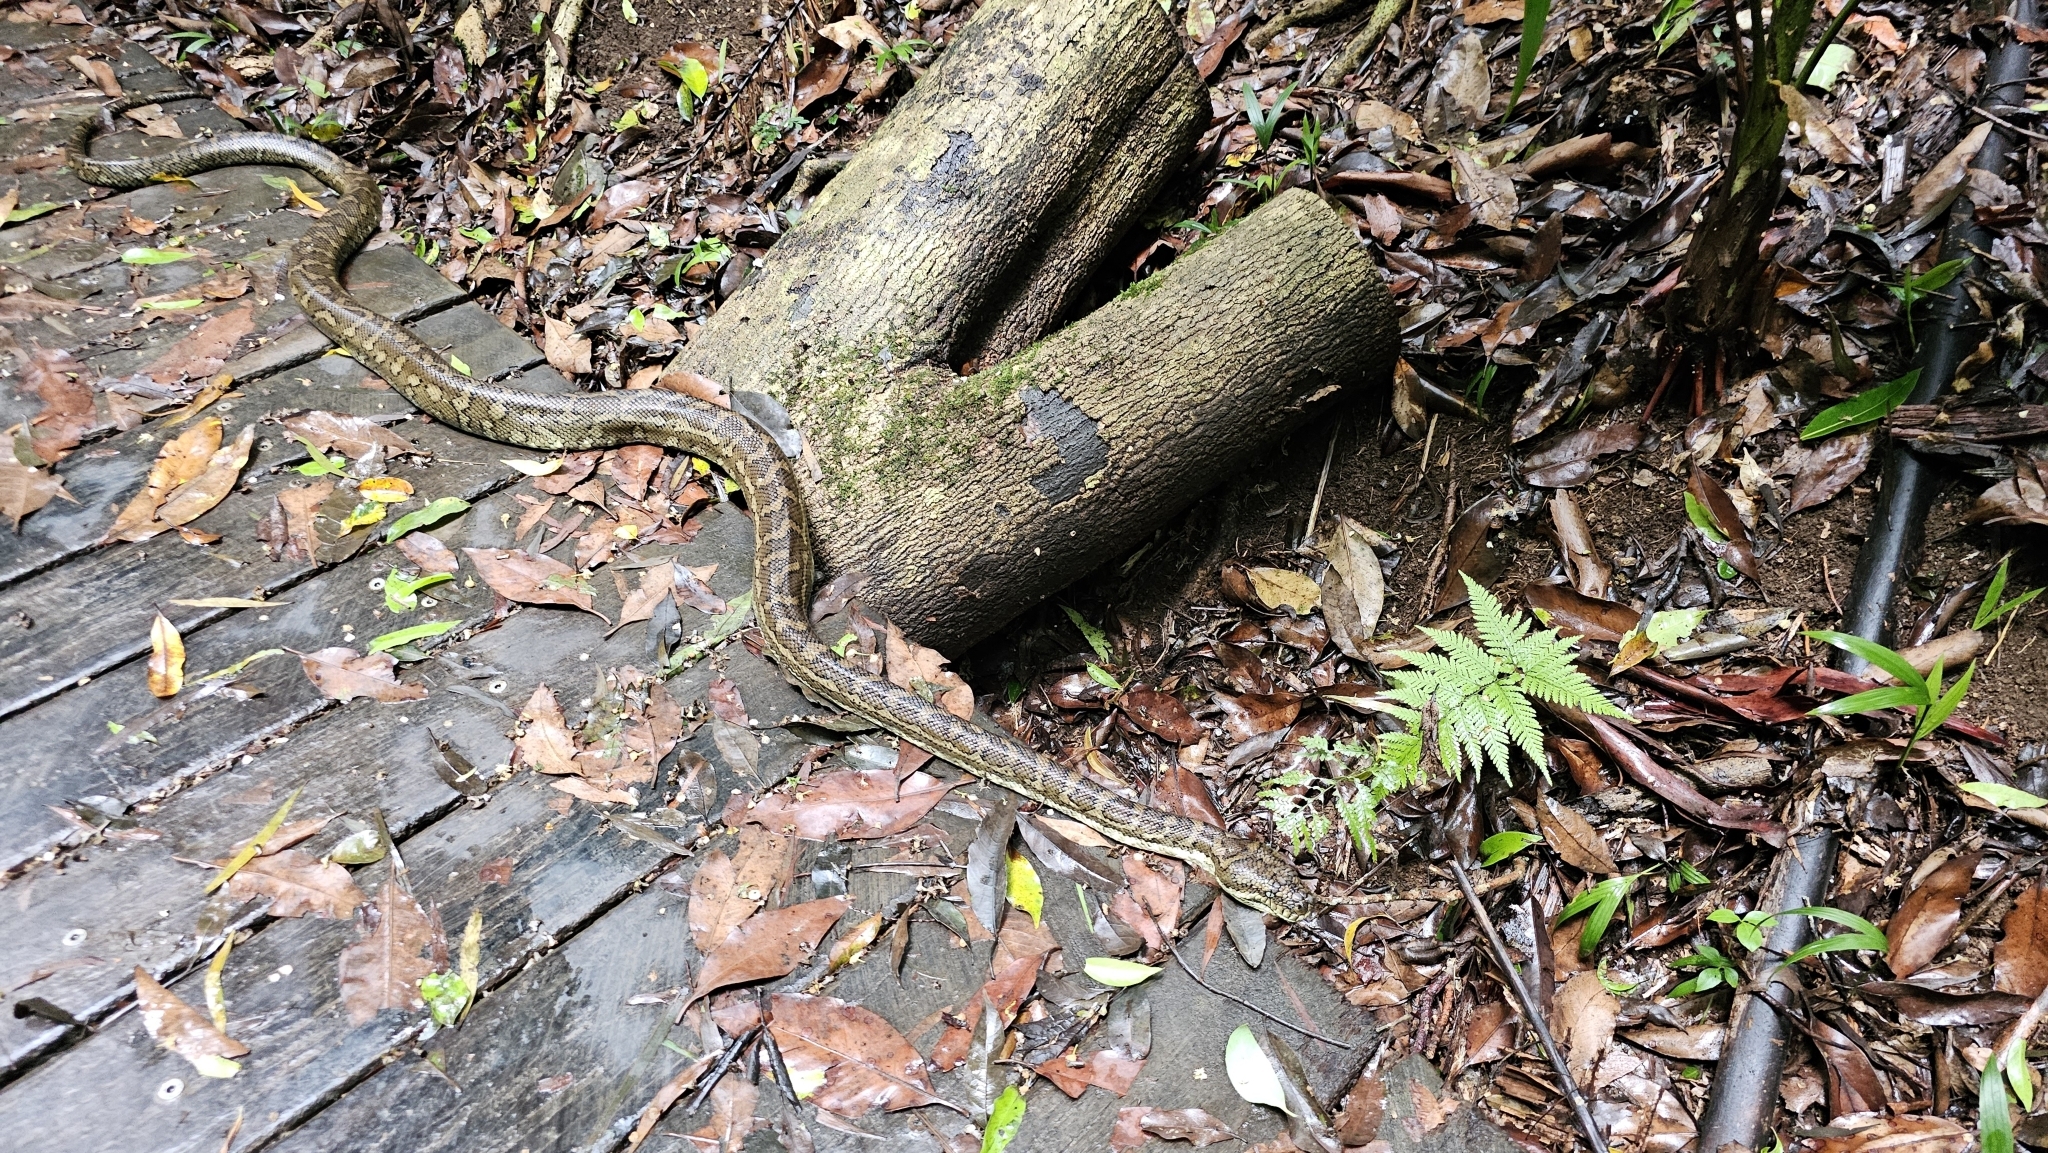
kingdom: Animalia
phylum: Chordata
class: Squamata
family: Pythonidae
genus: Morelia
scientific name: Morelia spilota
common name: Carpet python
